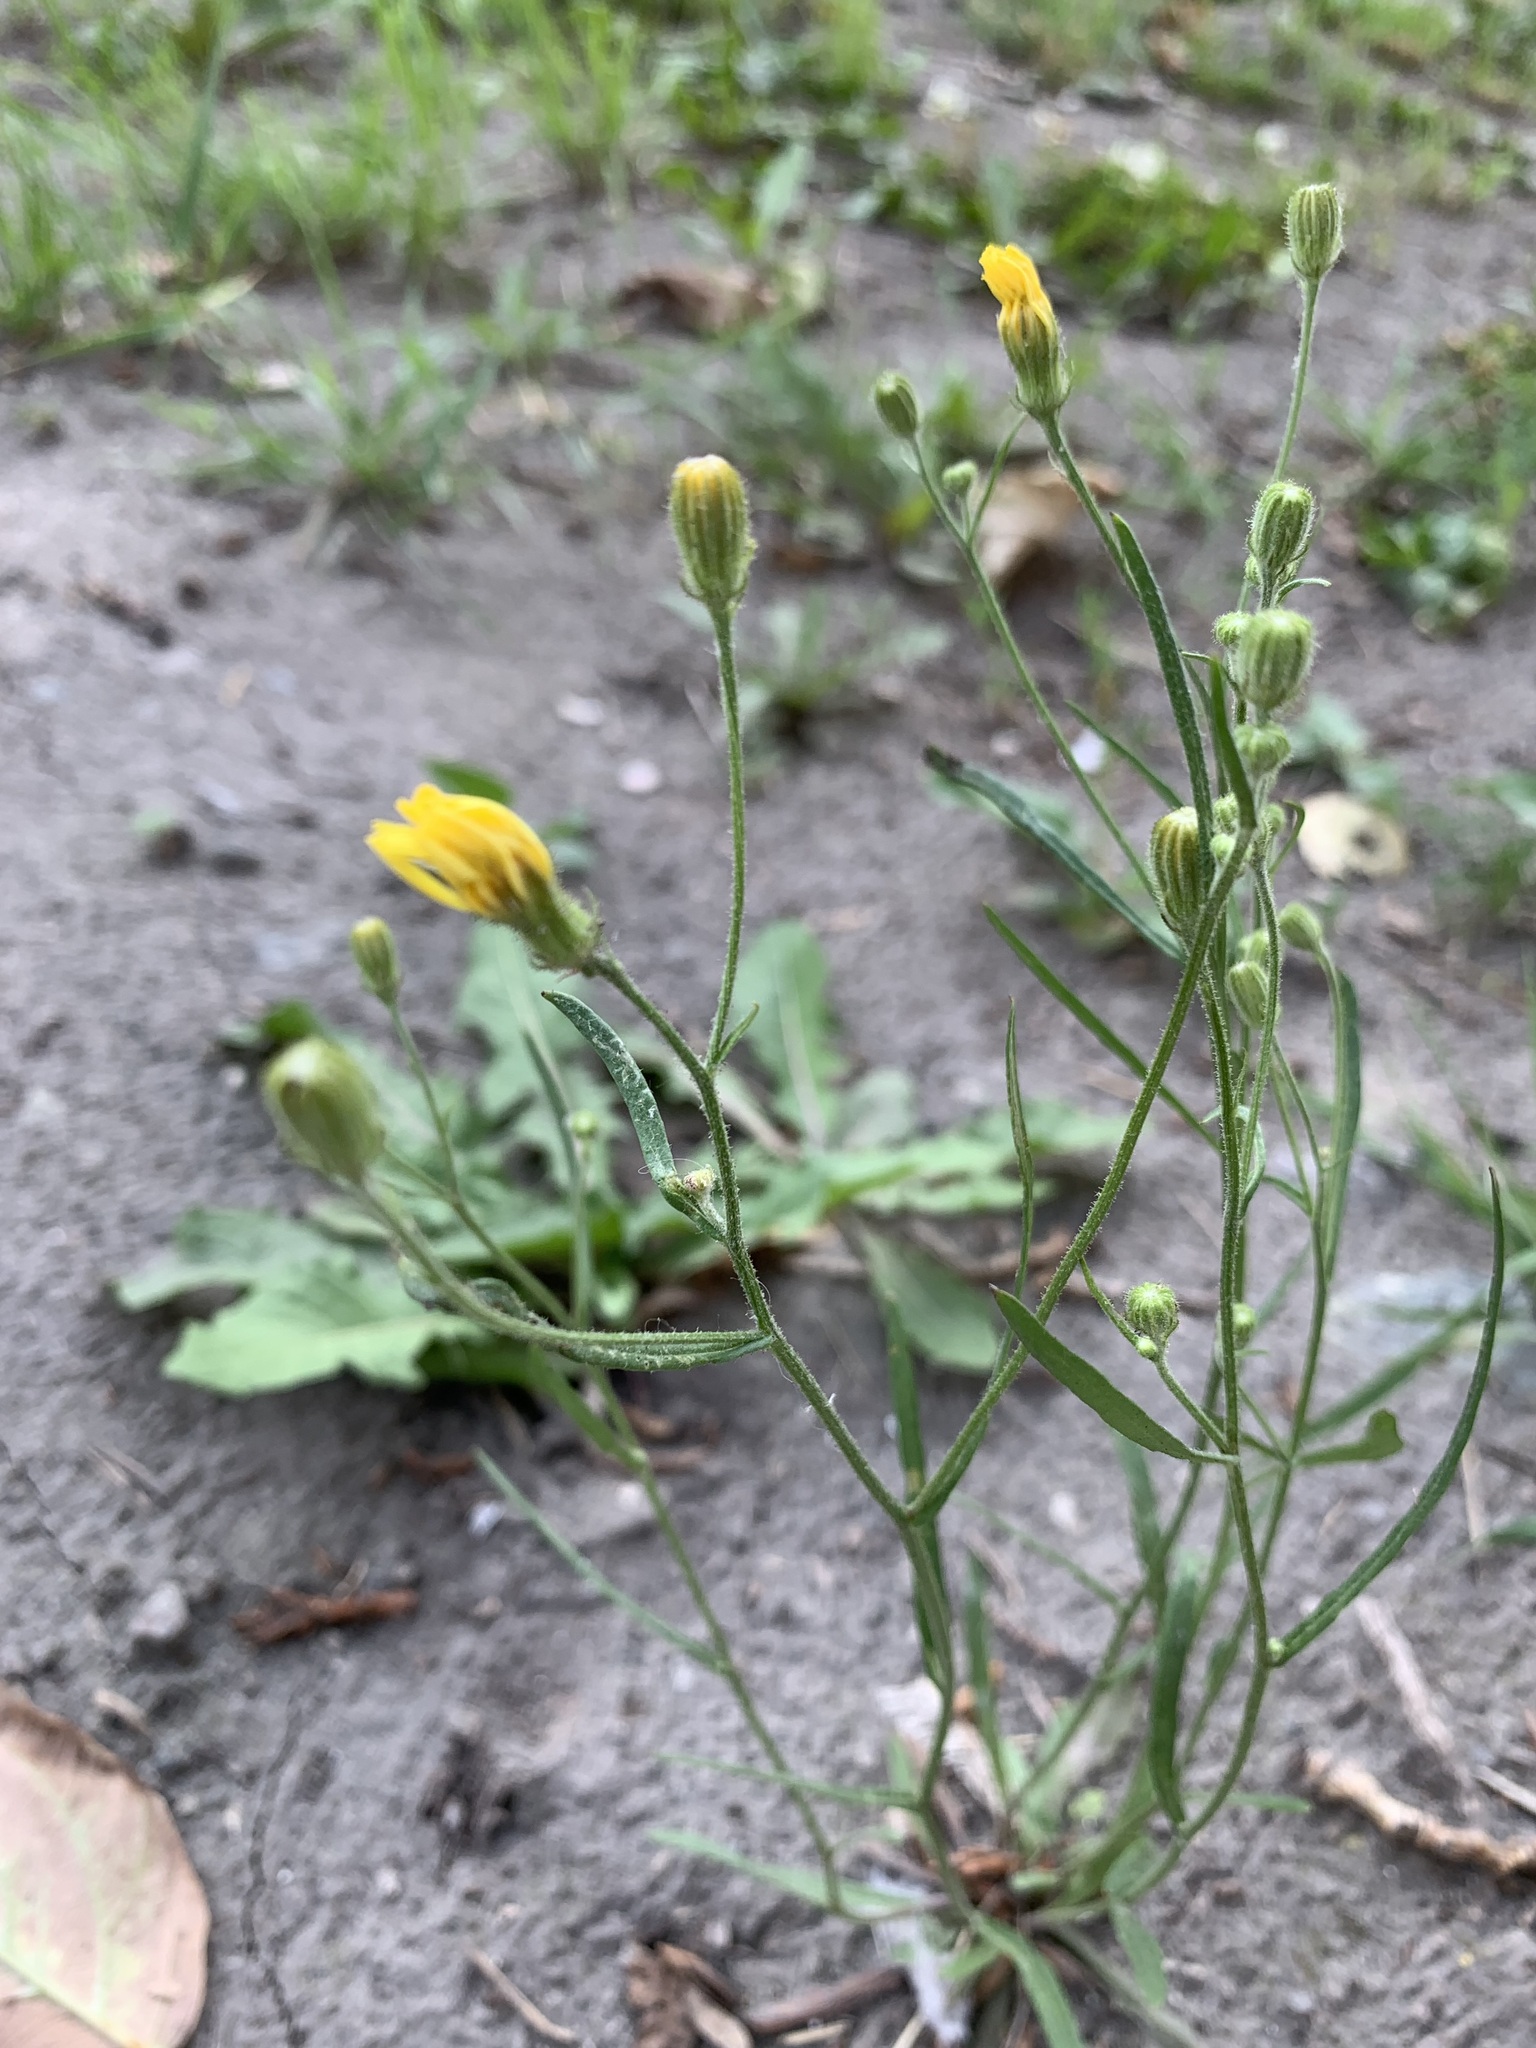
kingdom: Plantae
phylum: Tracheophyta
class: Magnoliopsida
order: Asterales
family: Asteraceae
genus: Crepis
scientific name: Crepis tectorum
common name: Narrow-leaved hawk's-beard
